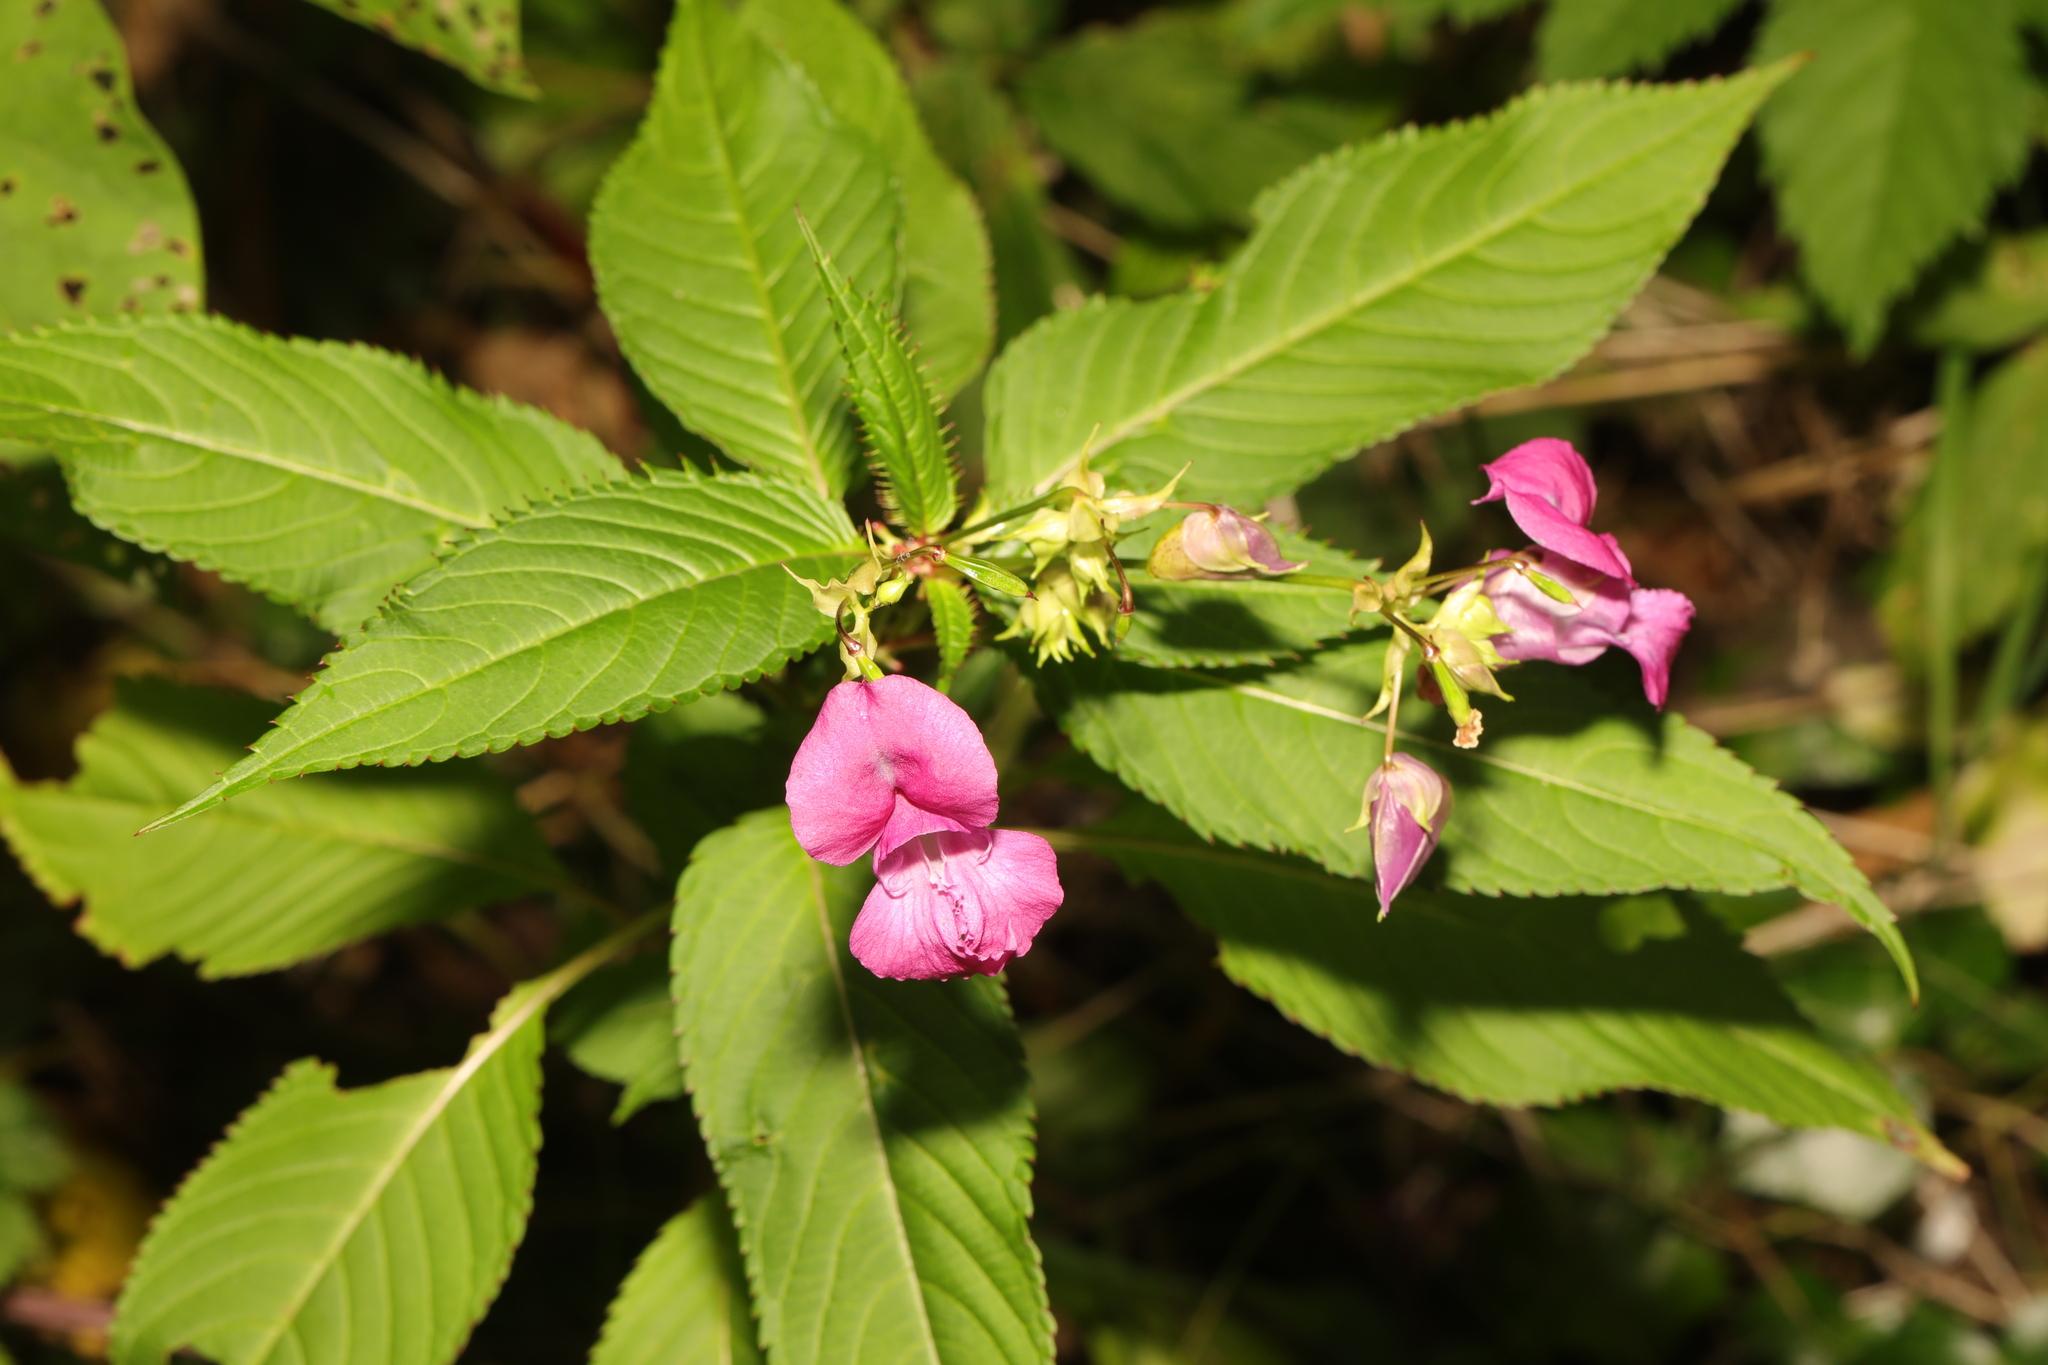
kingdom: Plantae
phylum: Tracheophyta
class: Magnoliopsida
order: Ericales
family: Balsaminaceae
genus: Impatiens
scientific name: Impatiens glandulifera
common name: Himalayan balsam
